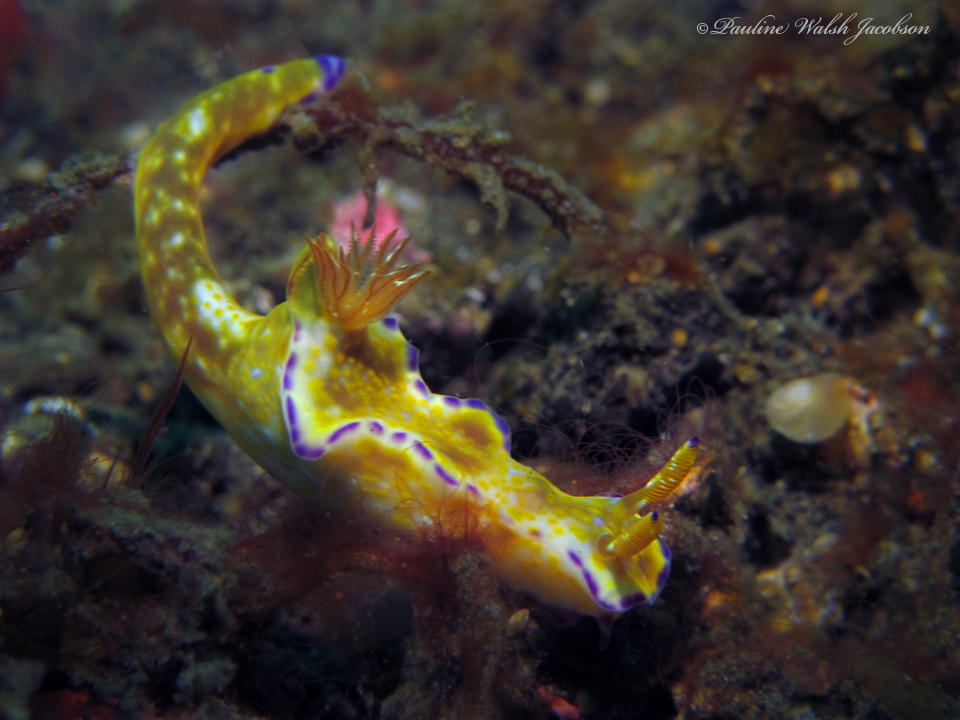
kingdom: Animalia
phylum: Mollusca
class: Gastropoda
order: Nudibranchia
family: Chromodorididae
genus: Ceratosoma
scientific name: Ceratosoma tenue
